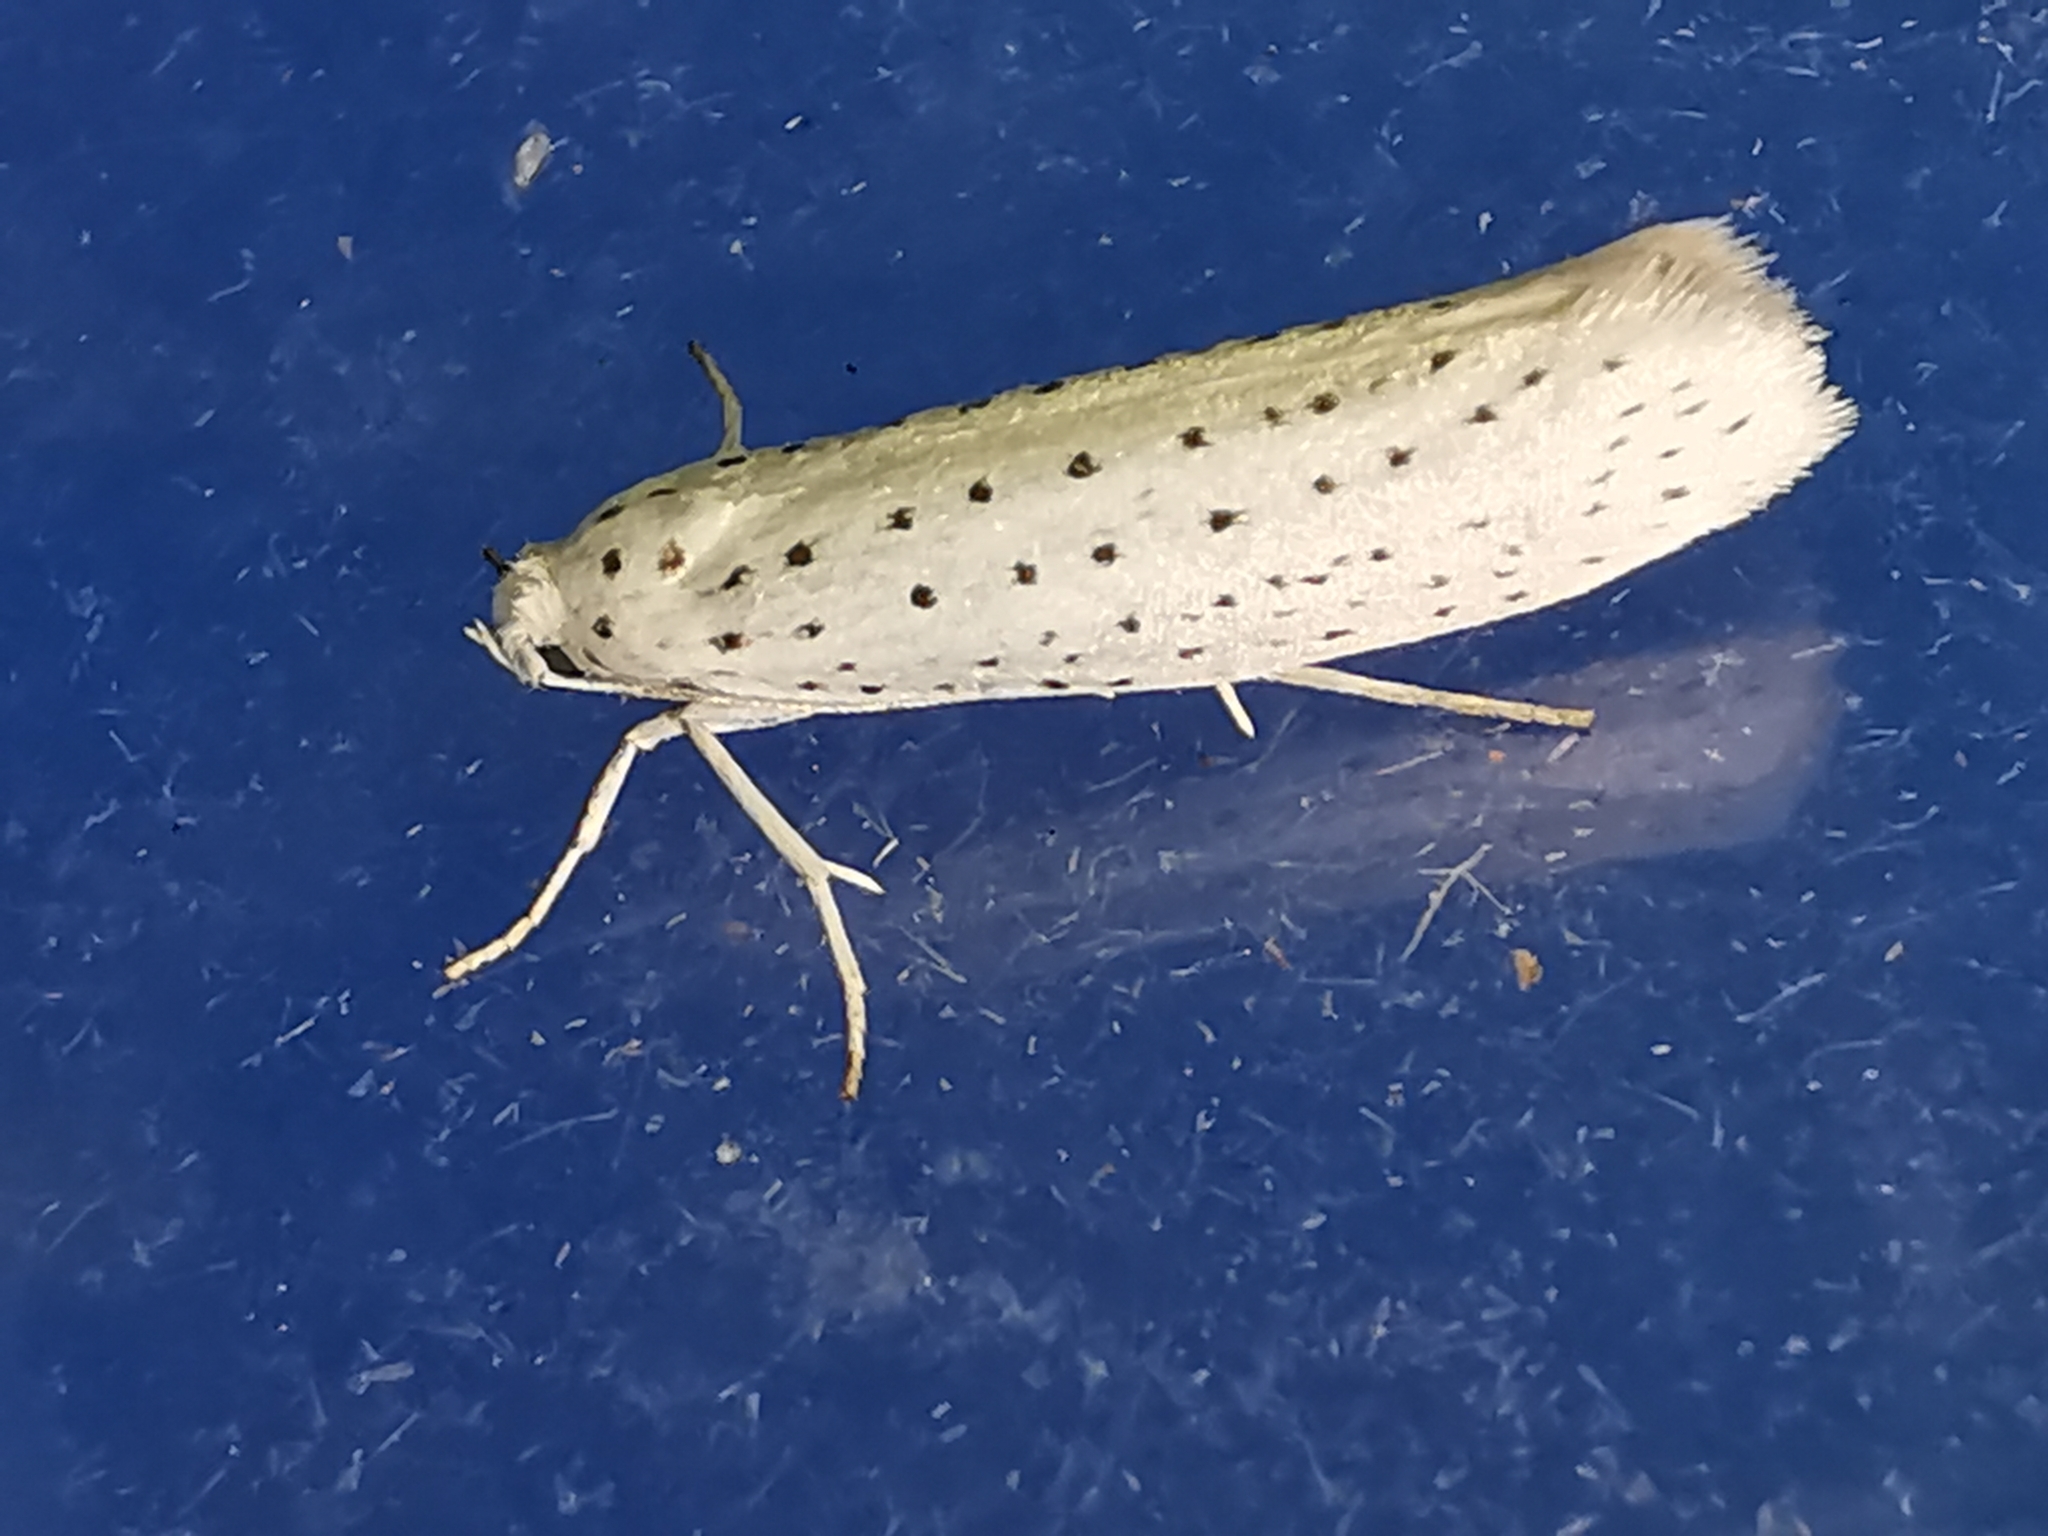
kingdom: Animalia
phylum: Arthropoda
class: Insecta
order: Lepidoptera
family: Yponomeutidae
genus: Yponomeuta
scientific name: Yponomeuta evonymella
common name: Bird-cherry ermine
